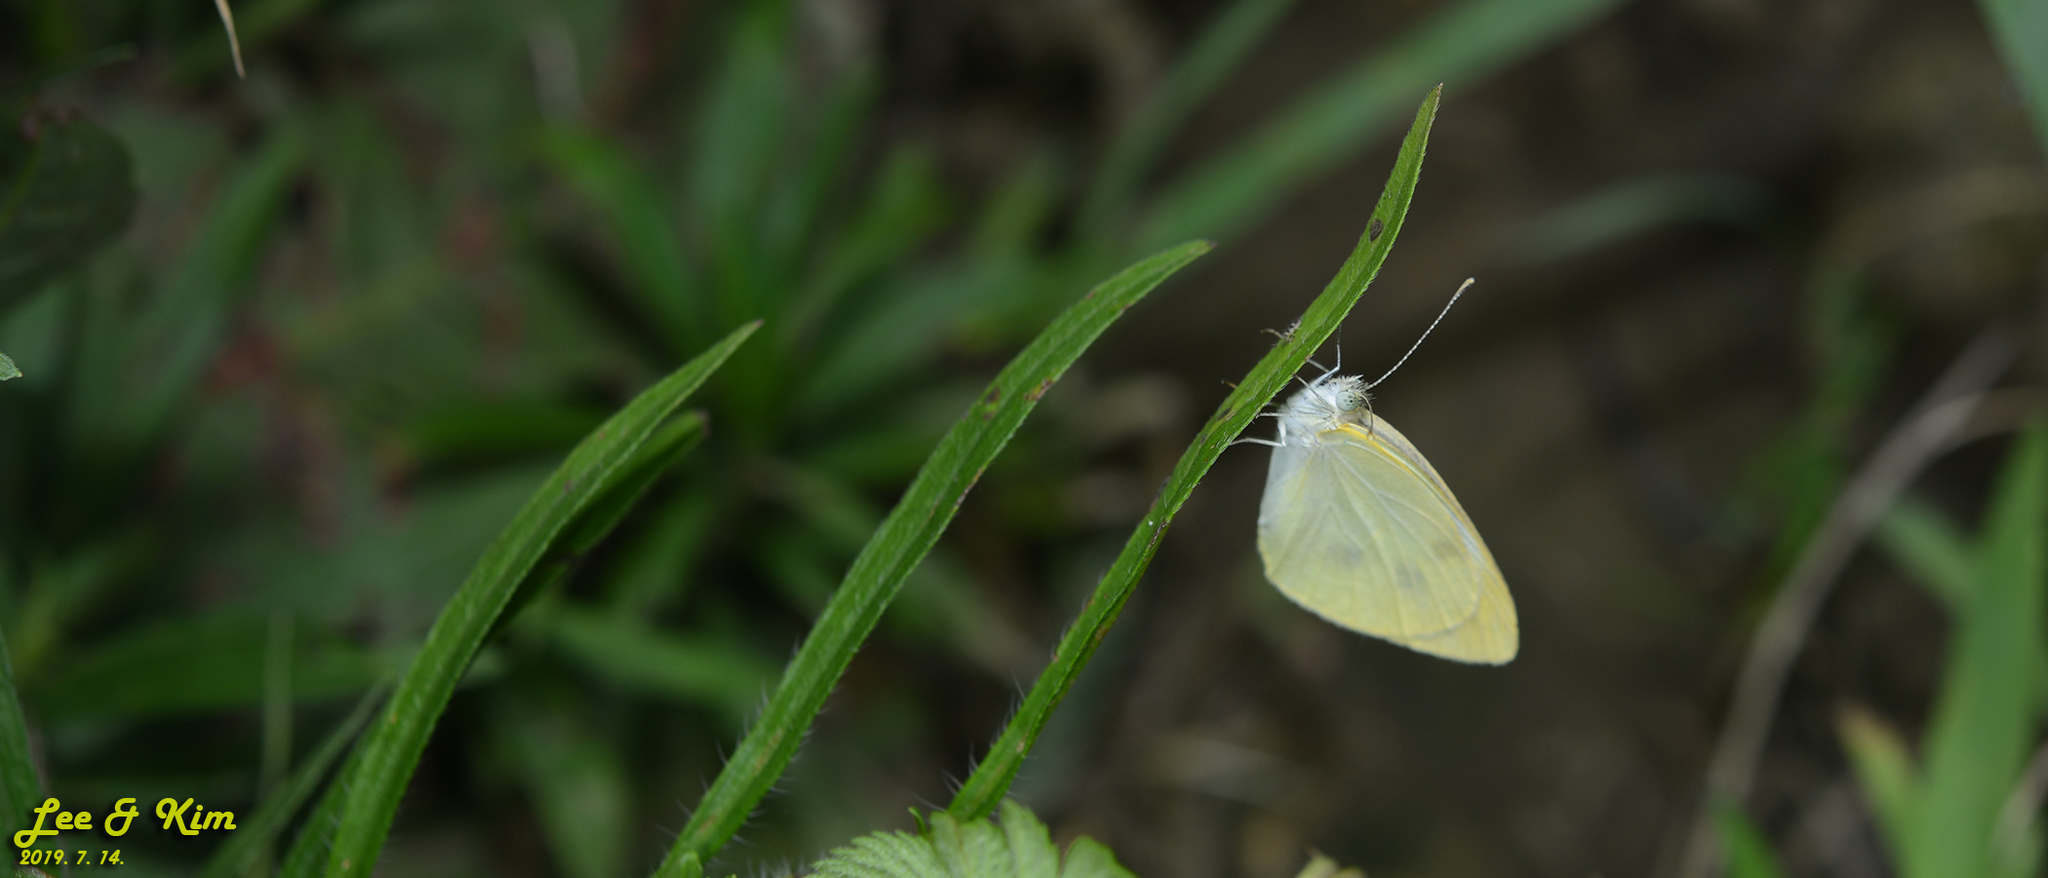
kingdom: Animalia
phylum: Arthropoda
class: Insecta
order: Lepidoptera
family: Pieridae
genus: Pieris
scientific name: Pieris rapae
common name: Small white
